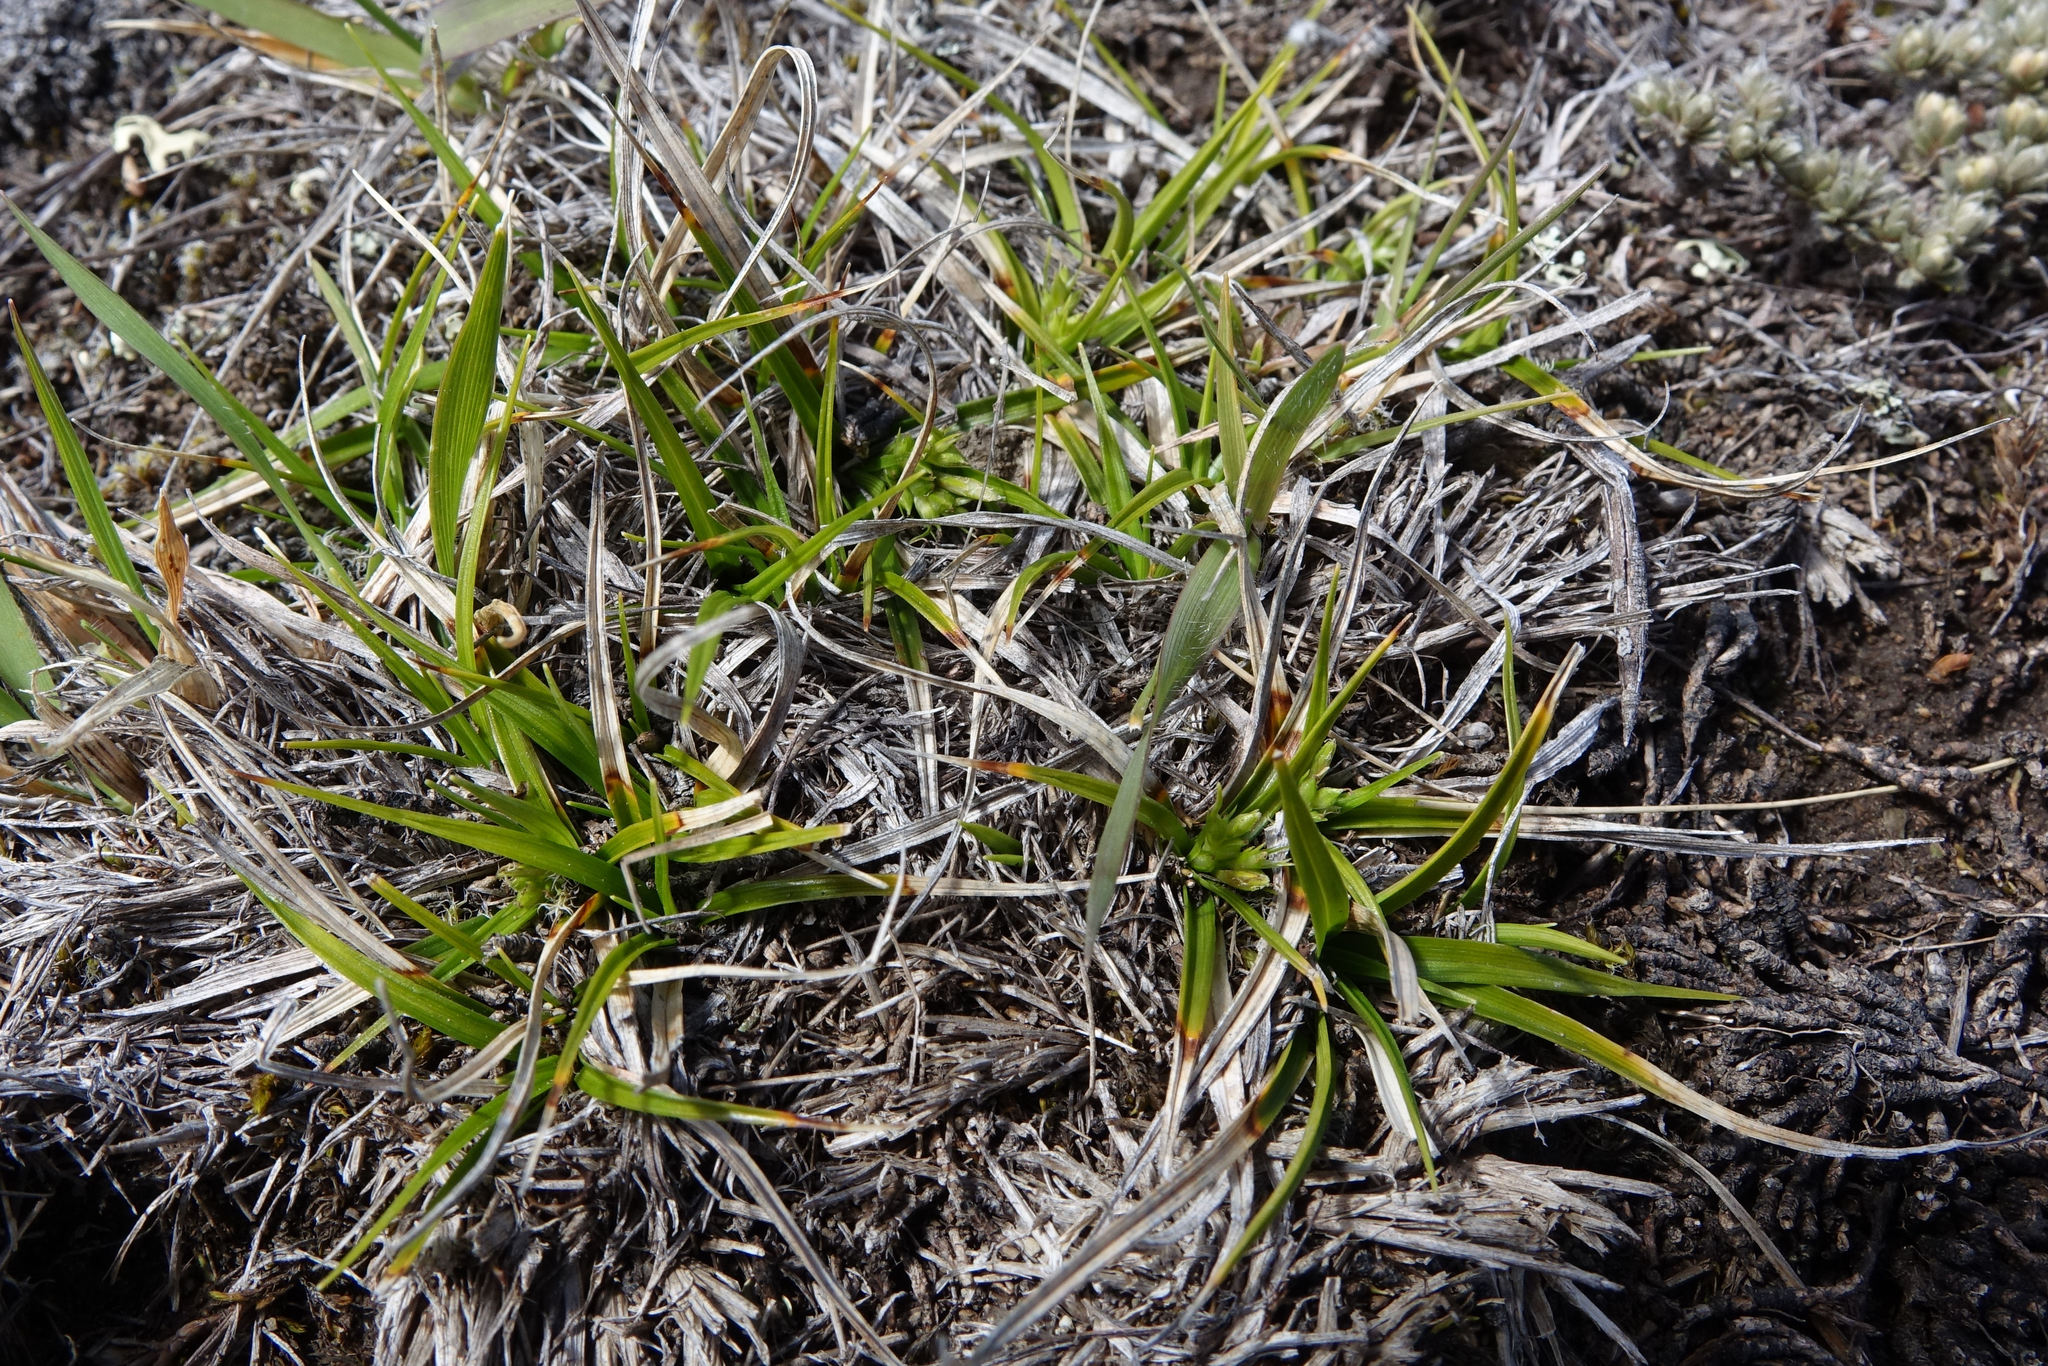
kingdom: Plantae
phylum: Tracheophyta
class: Liliopsida
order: Poales
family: Cyperaceae
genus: Carex
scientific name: Carex breviculmis
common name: Asian shortstem sedge
